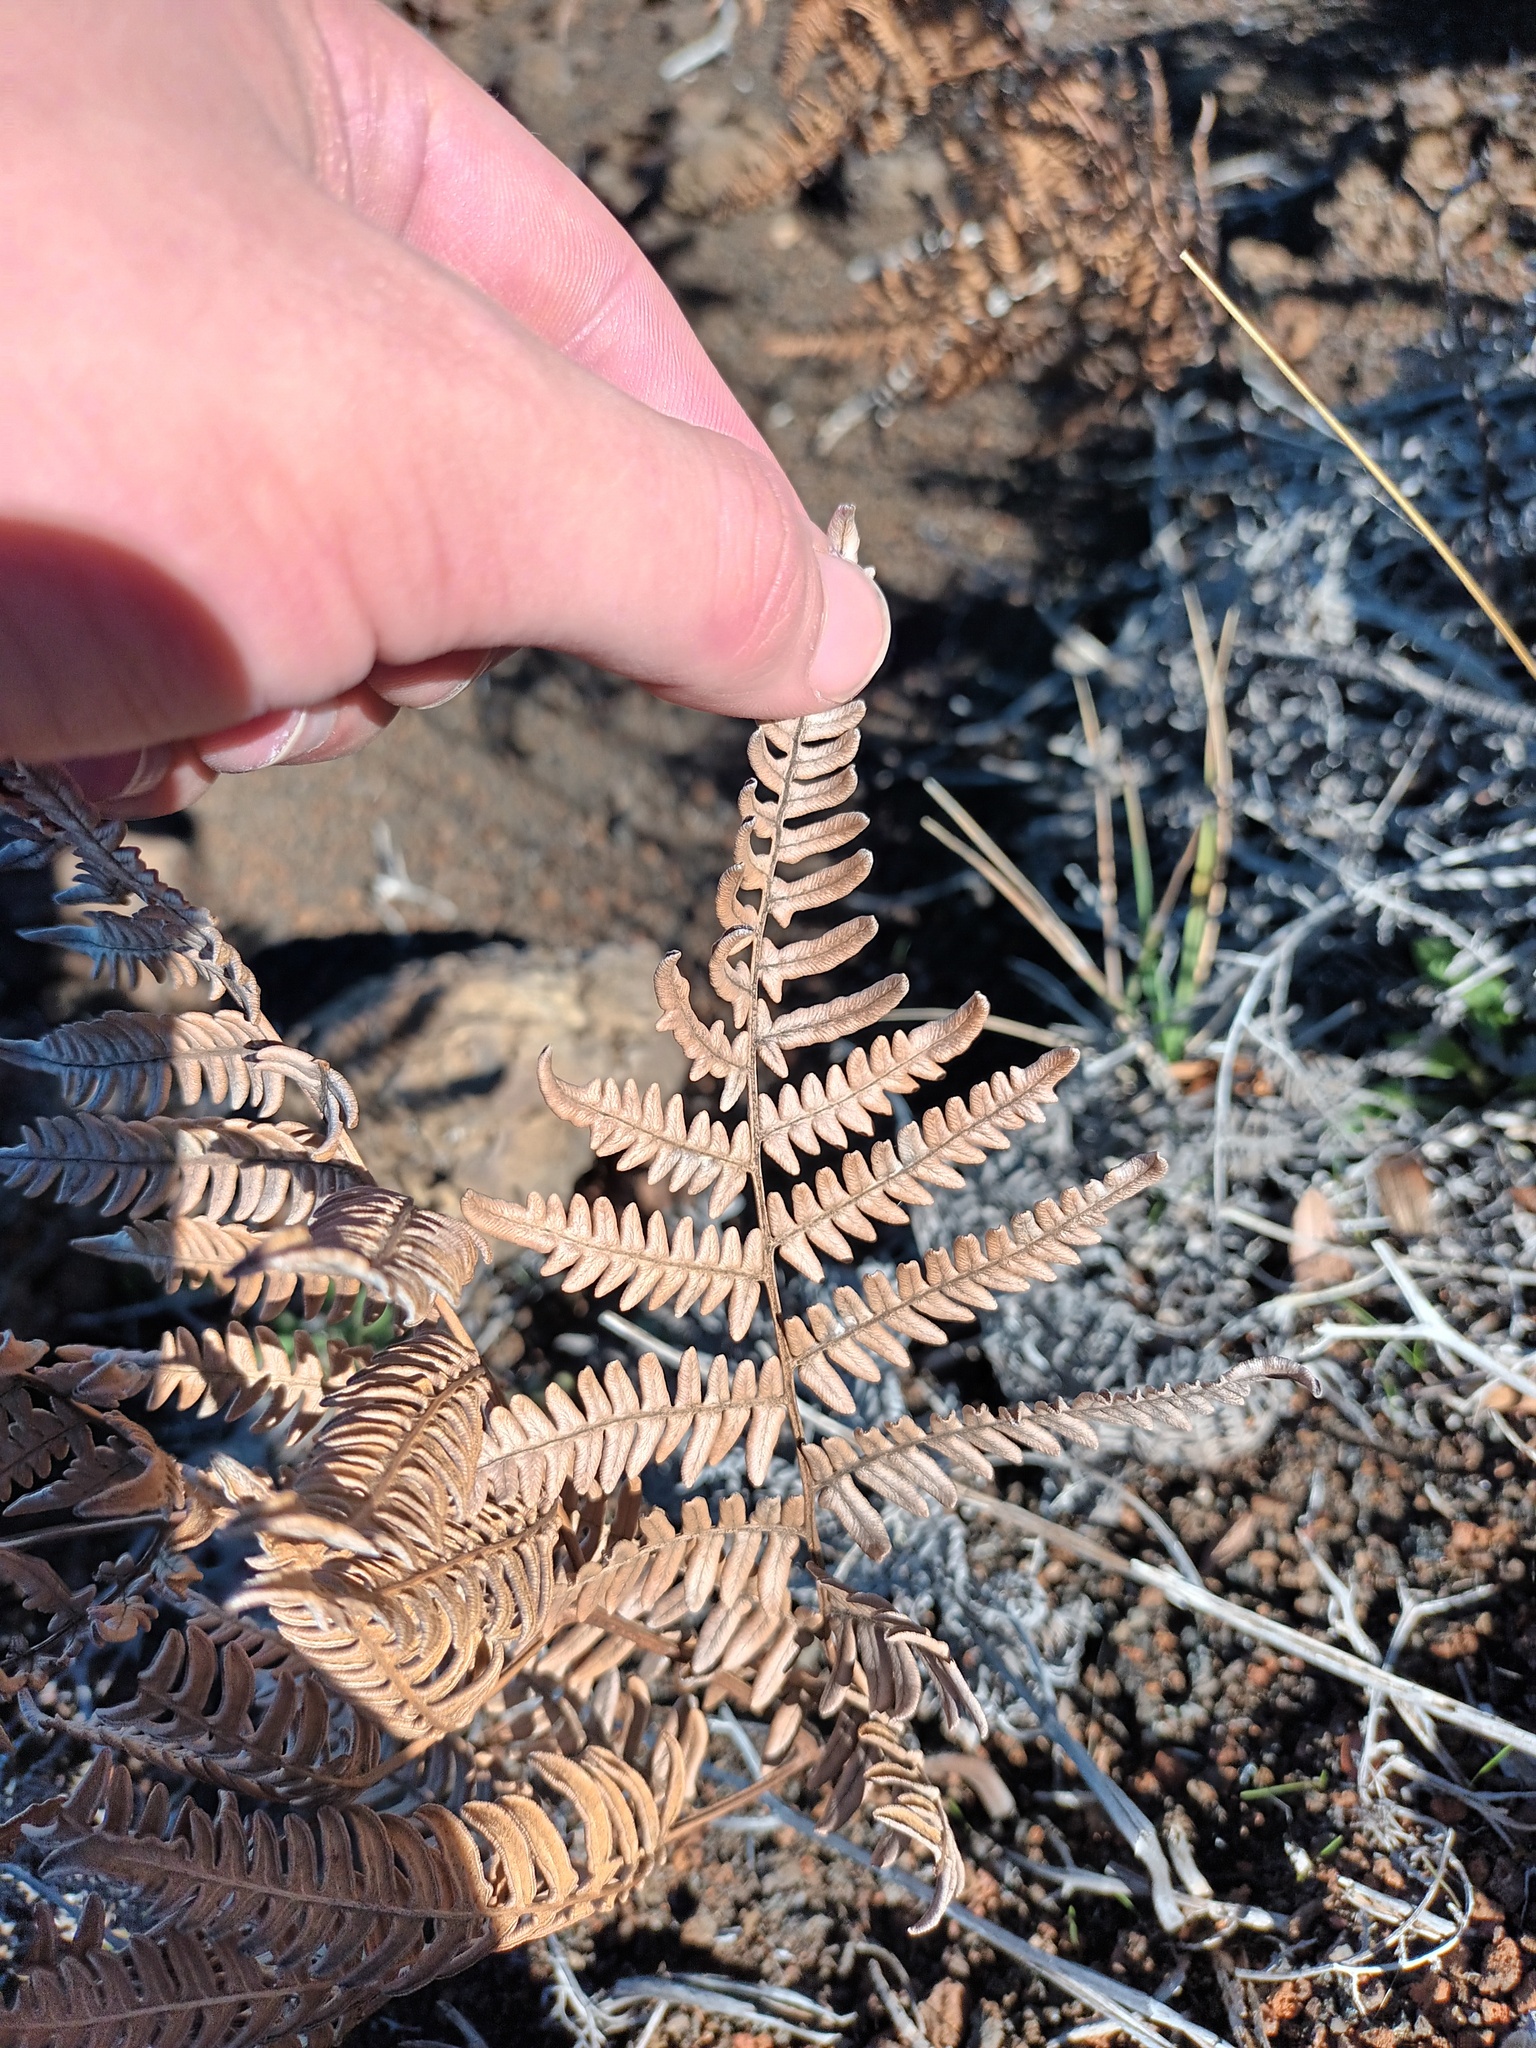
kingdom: Plantae
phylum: Tracheophyta
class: Polypodiopsida
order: Polypodiales
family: Dennstaedtiaceae
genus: Pteridium
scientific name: Pteridium aquilinum
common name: Bracken
